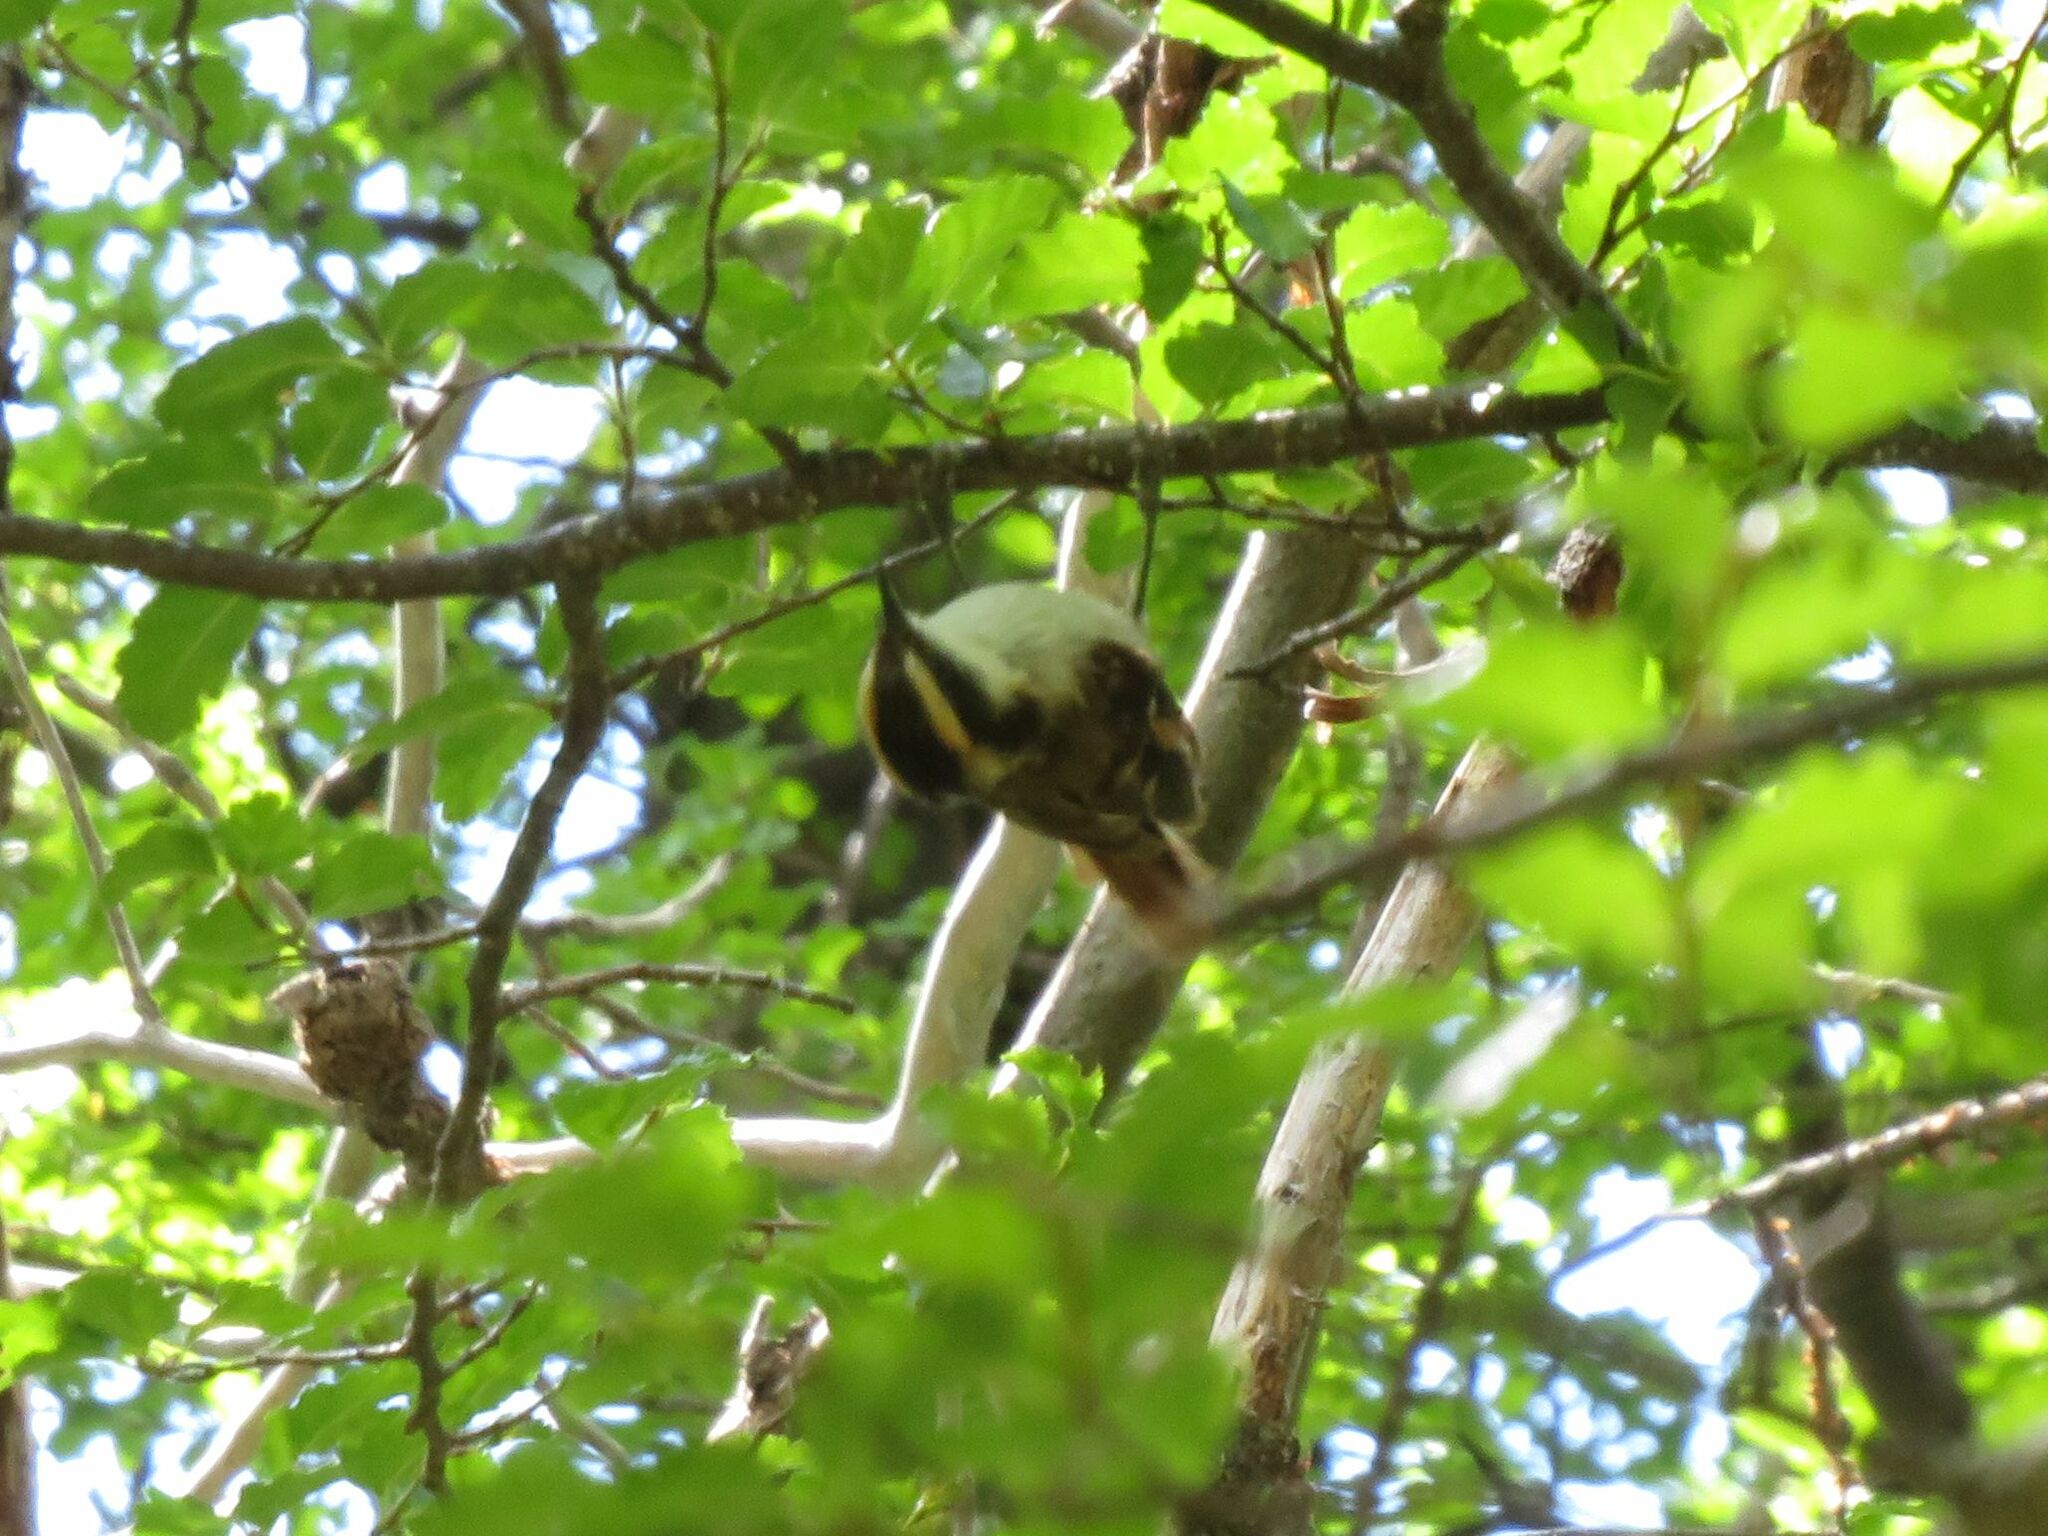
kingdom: Animalia
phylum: Chordata
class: Aves
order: Passeriformes
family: Furnariidae
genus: Aphrastura
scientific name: Aphrastura spinicauda
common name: Thorn-tailed rayadito
